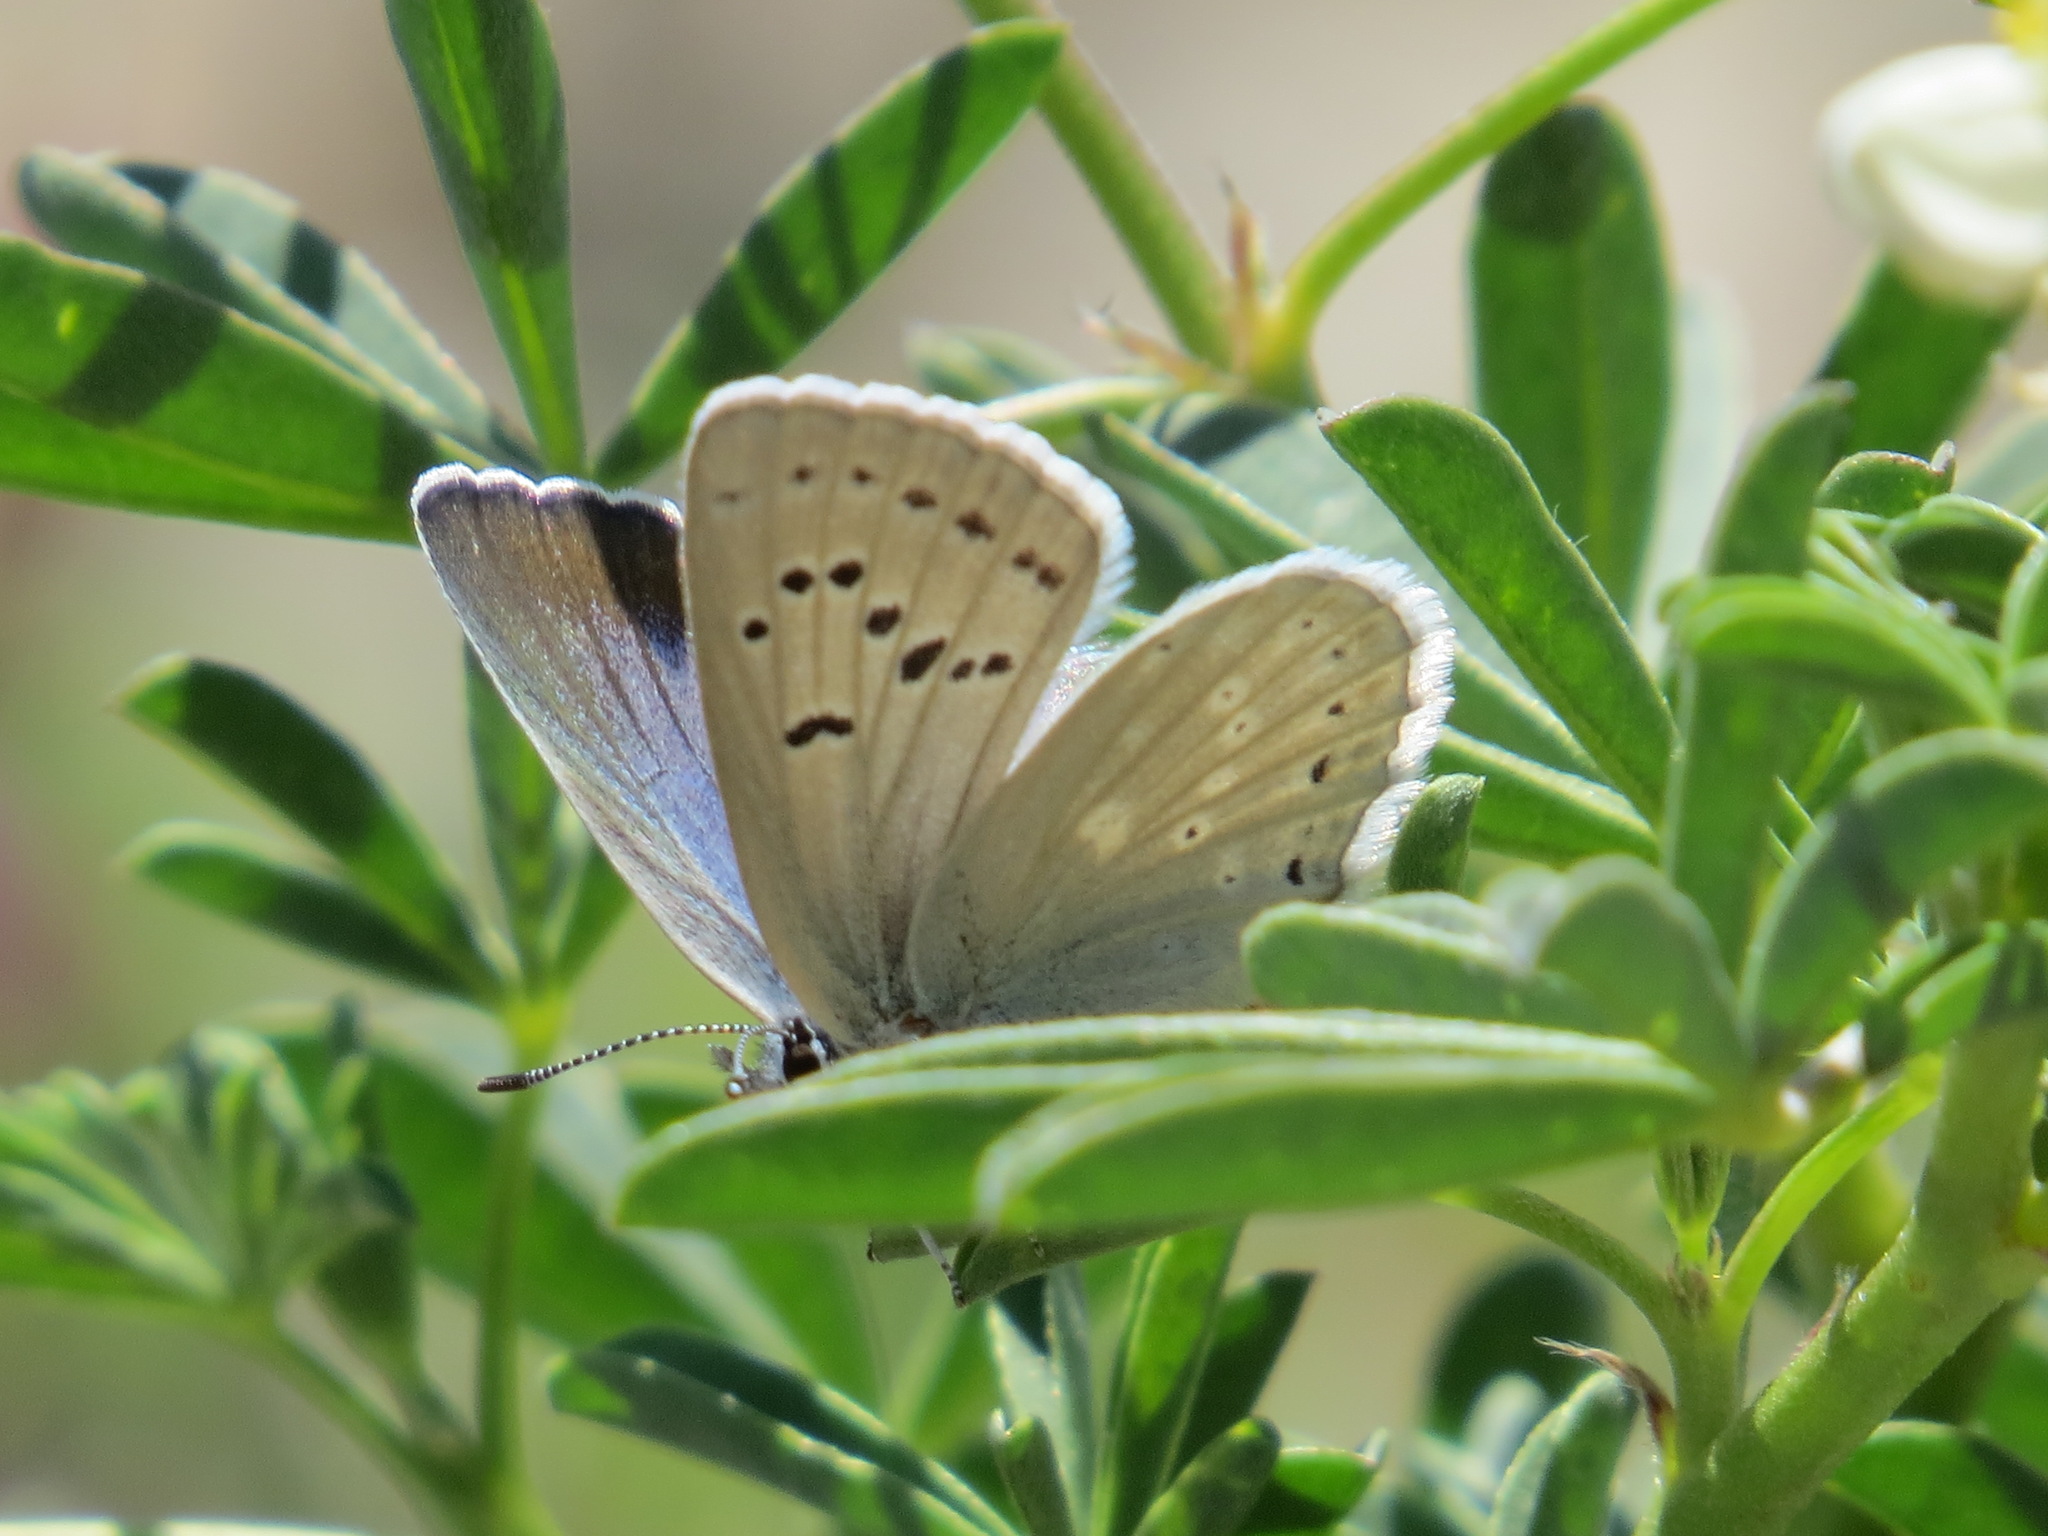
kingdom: Animalia
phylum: Arthropoda
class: Insecta
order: Lepidoptera
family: Lycaenidae
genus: Icaricia
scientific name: Icaricia icarioides
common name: Boisduval's blue
